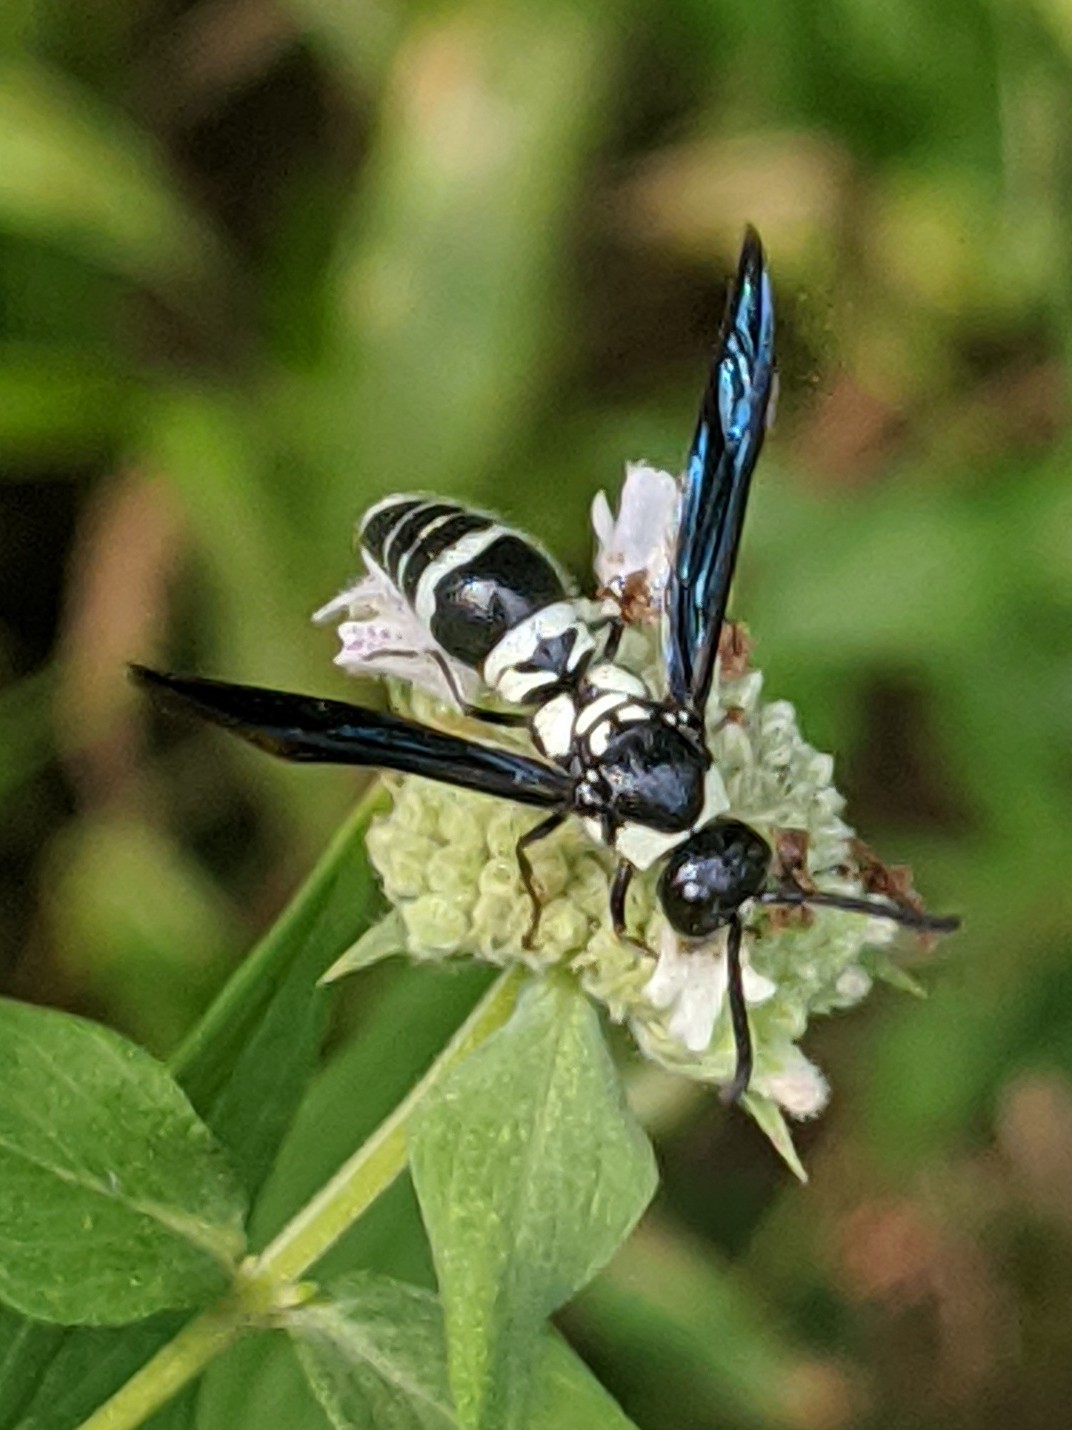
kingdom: Animalia
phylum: Arthropoda
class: Insecta
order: Hymenoptera
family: Eumenidae
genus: Pseudodynerus
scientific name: Pseudodynerus quadrisectus
